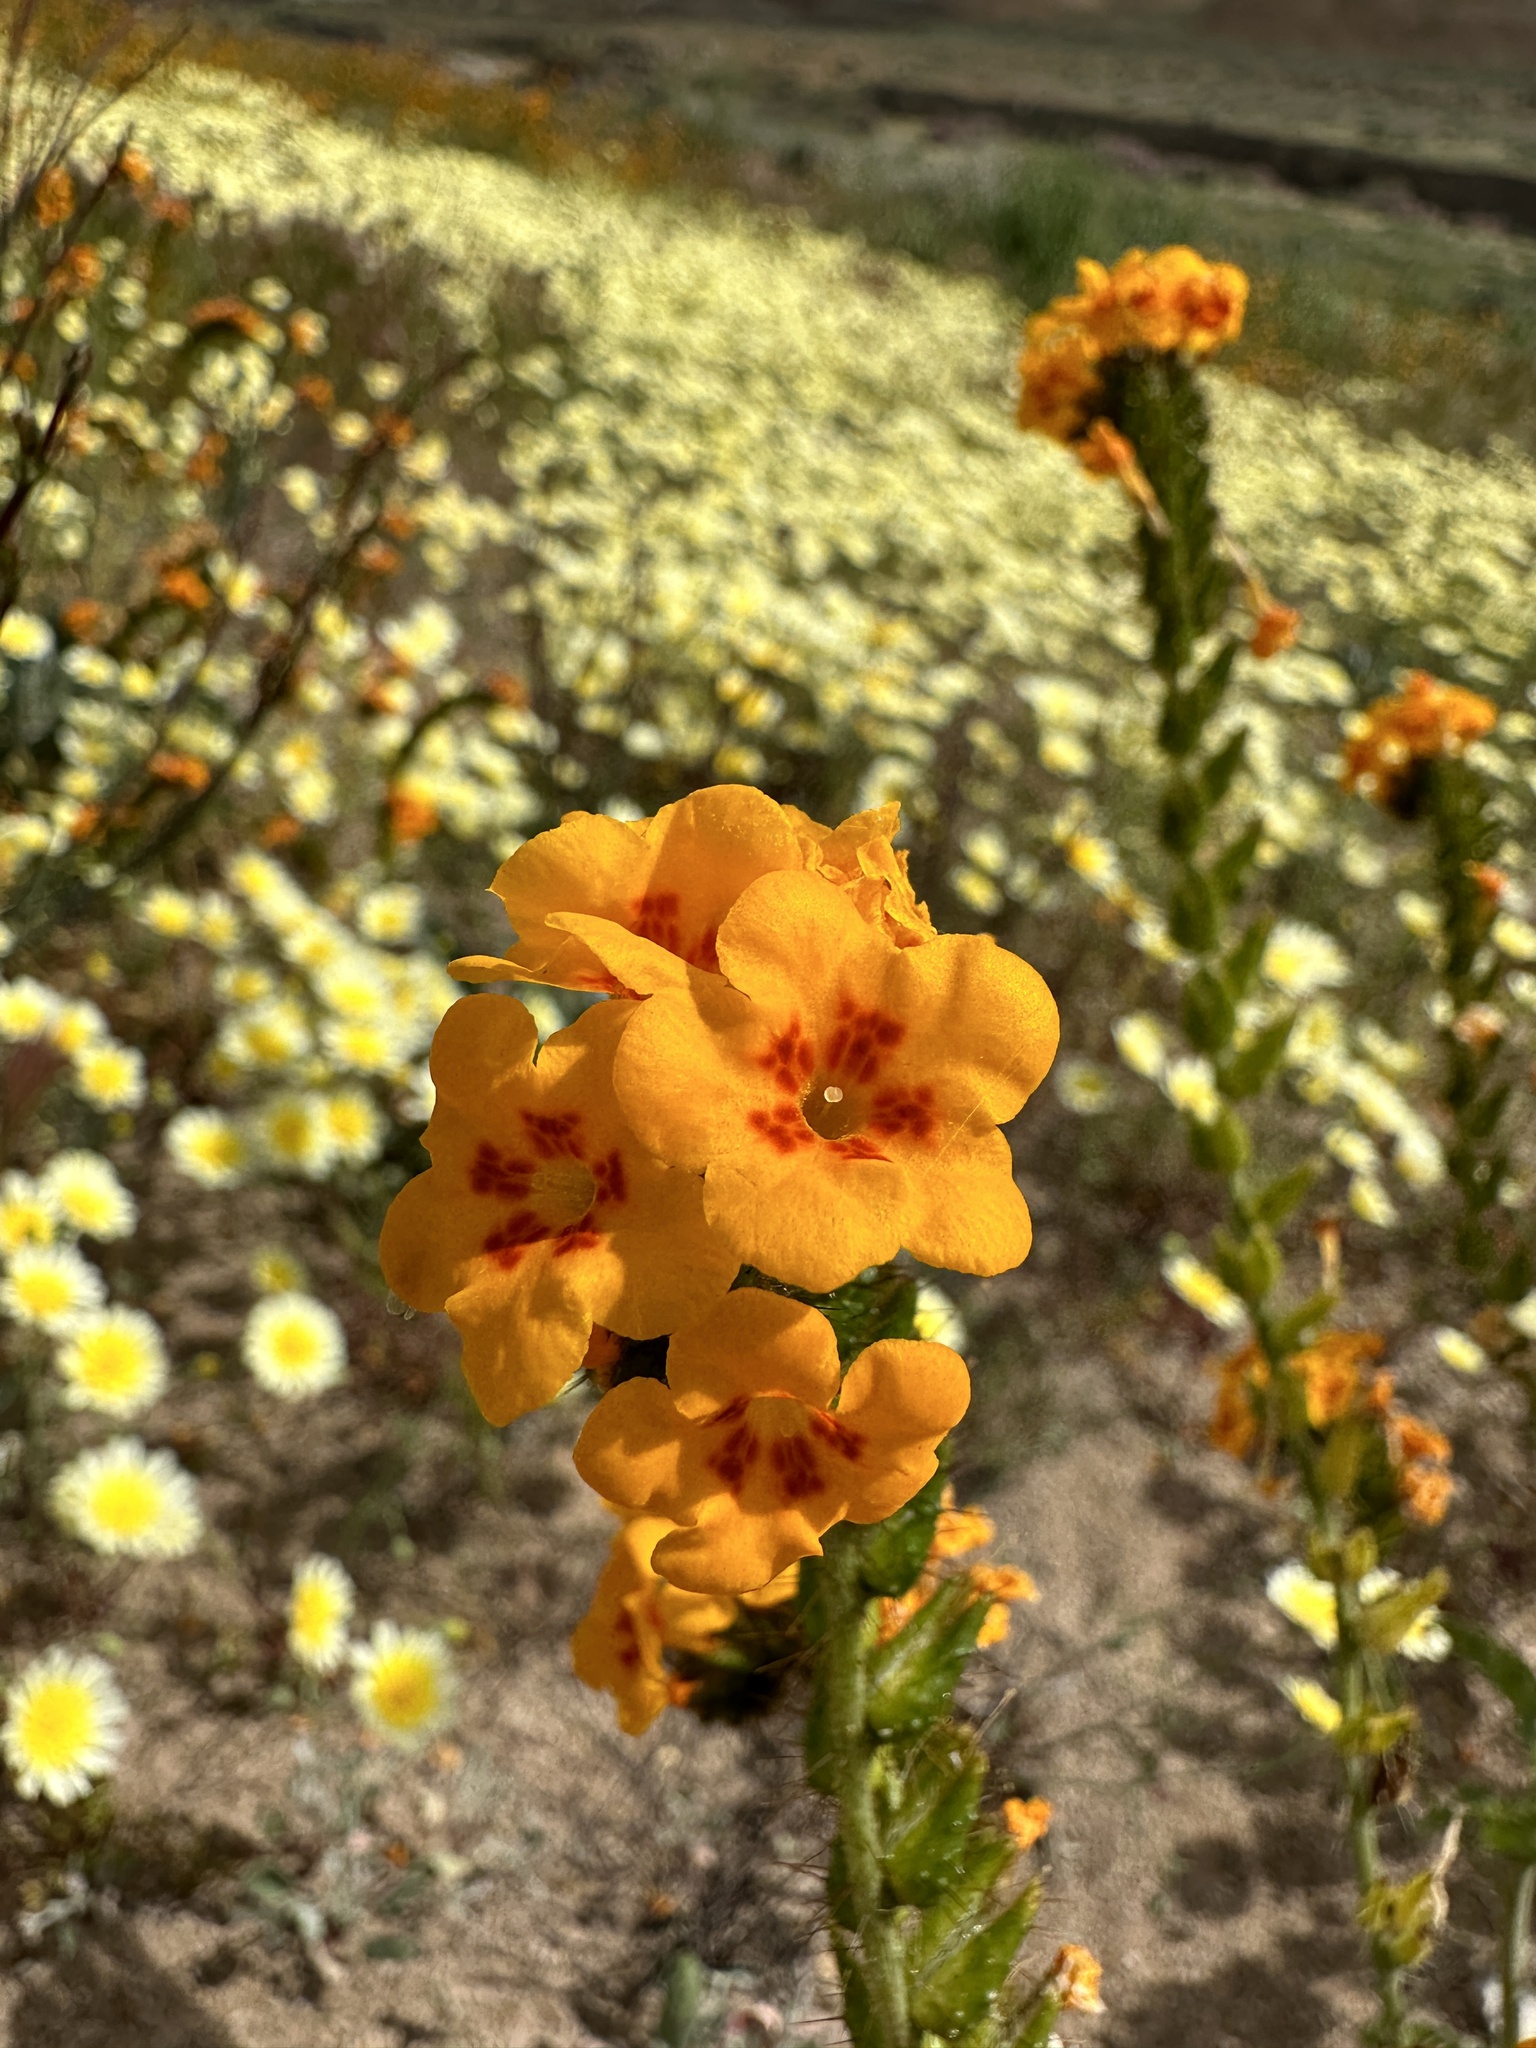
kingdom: Plantae
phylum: Tracheophyta
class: Magnoliopsida
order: Boraginales
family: Boraginaceae
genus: Amsinckia
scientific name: Amsinckia vernicosa
